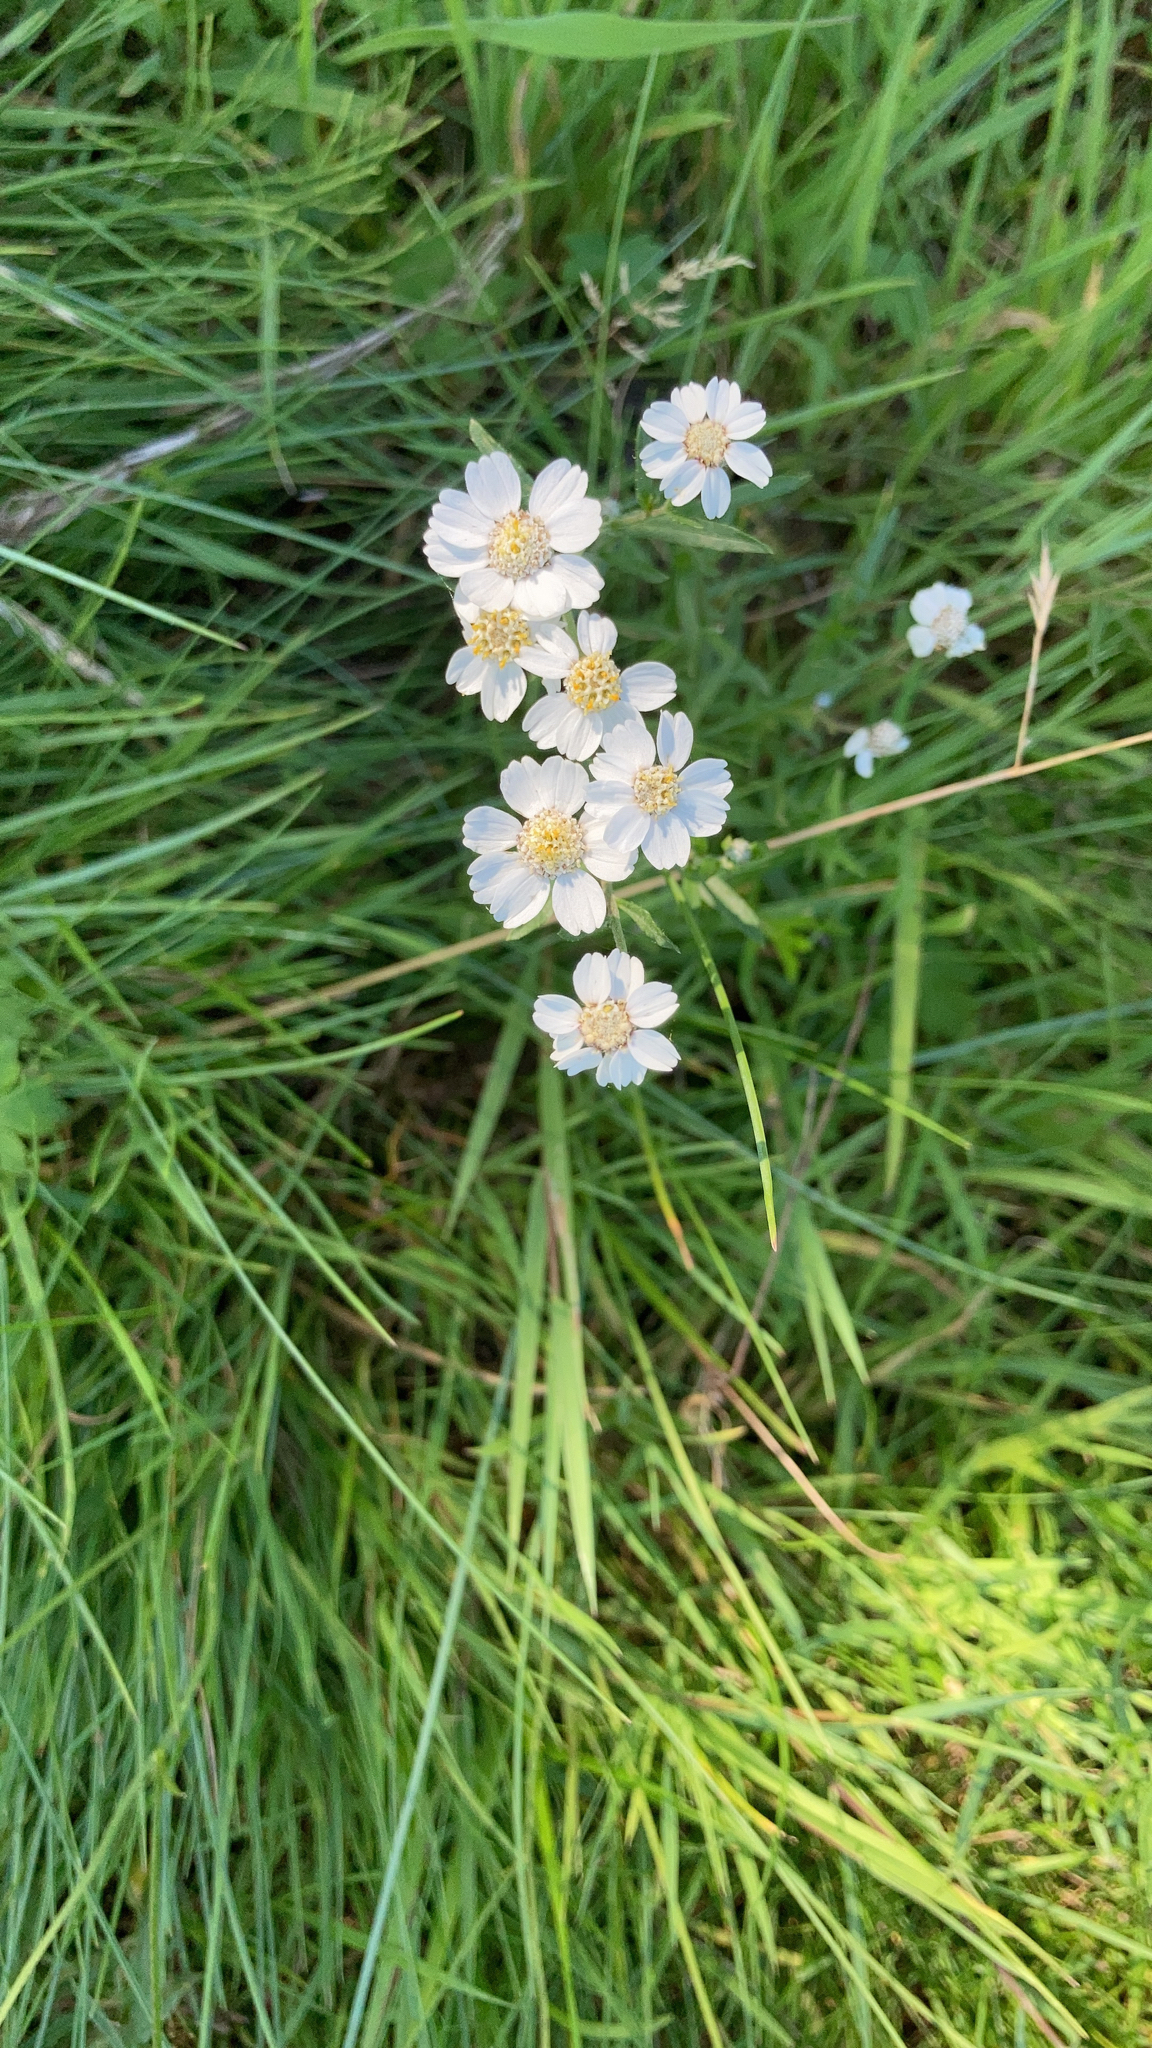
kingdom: Plantae
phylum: Tracheophyta
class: Magnoliopsida
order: Asterales
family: Asteraceae
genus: Achillea
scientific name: Achillea ptarmica
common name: Sneezeweed
